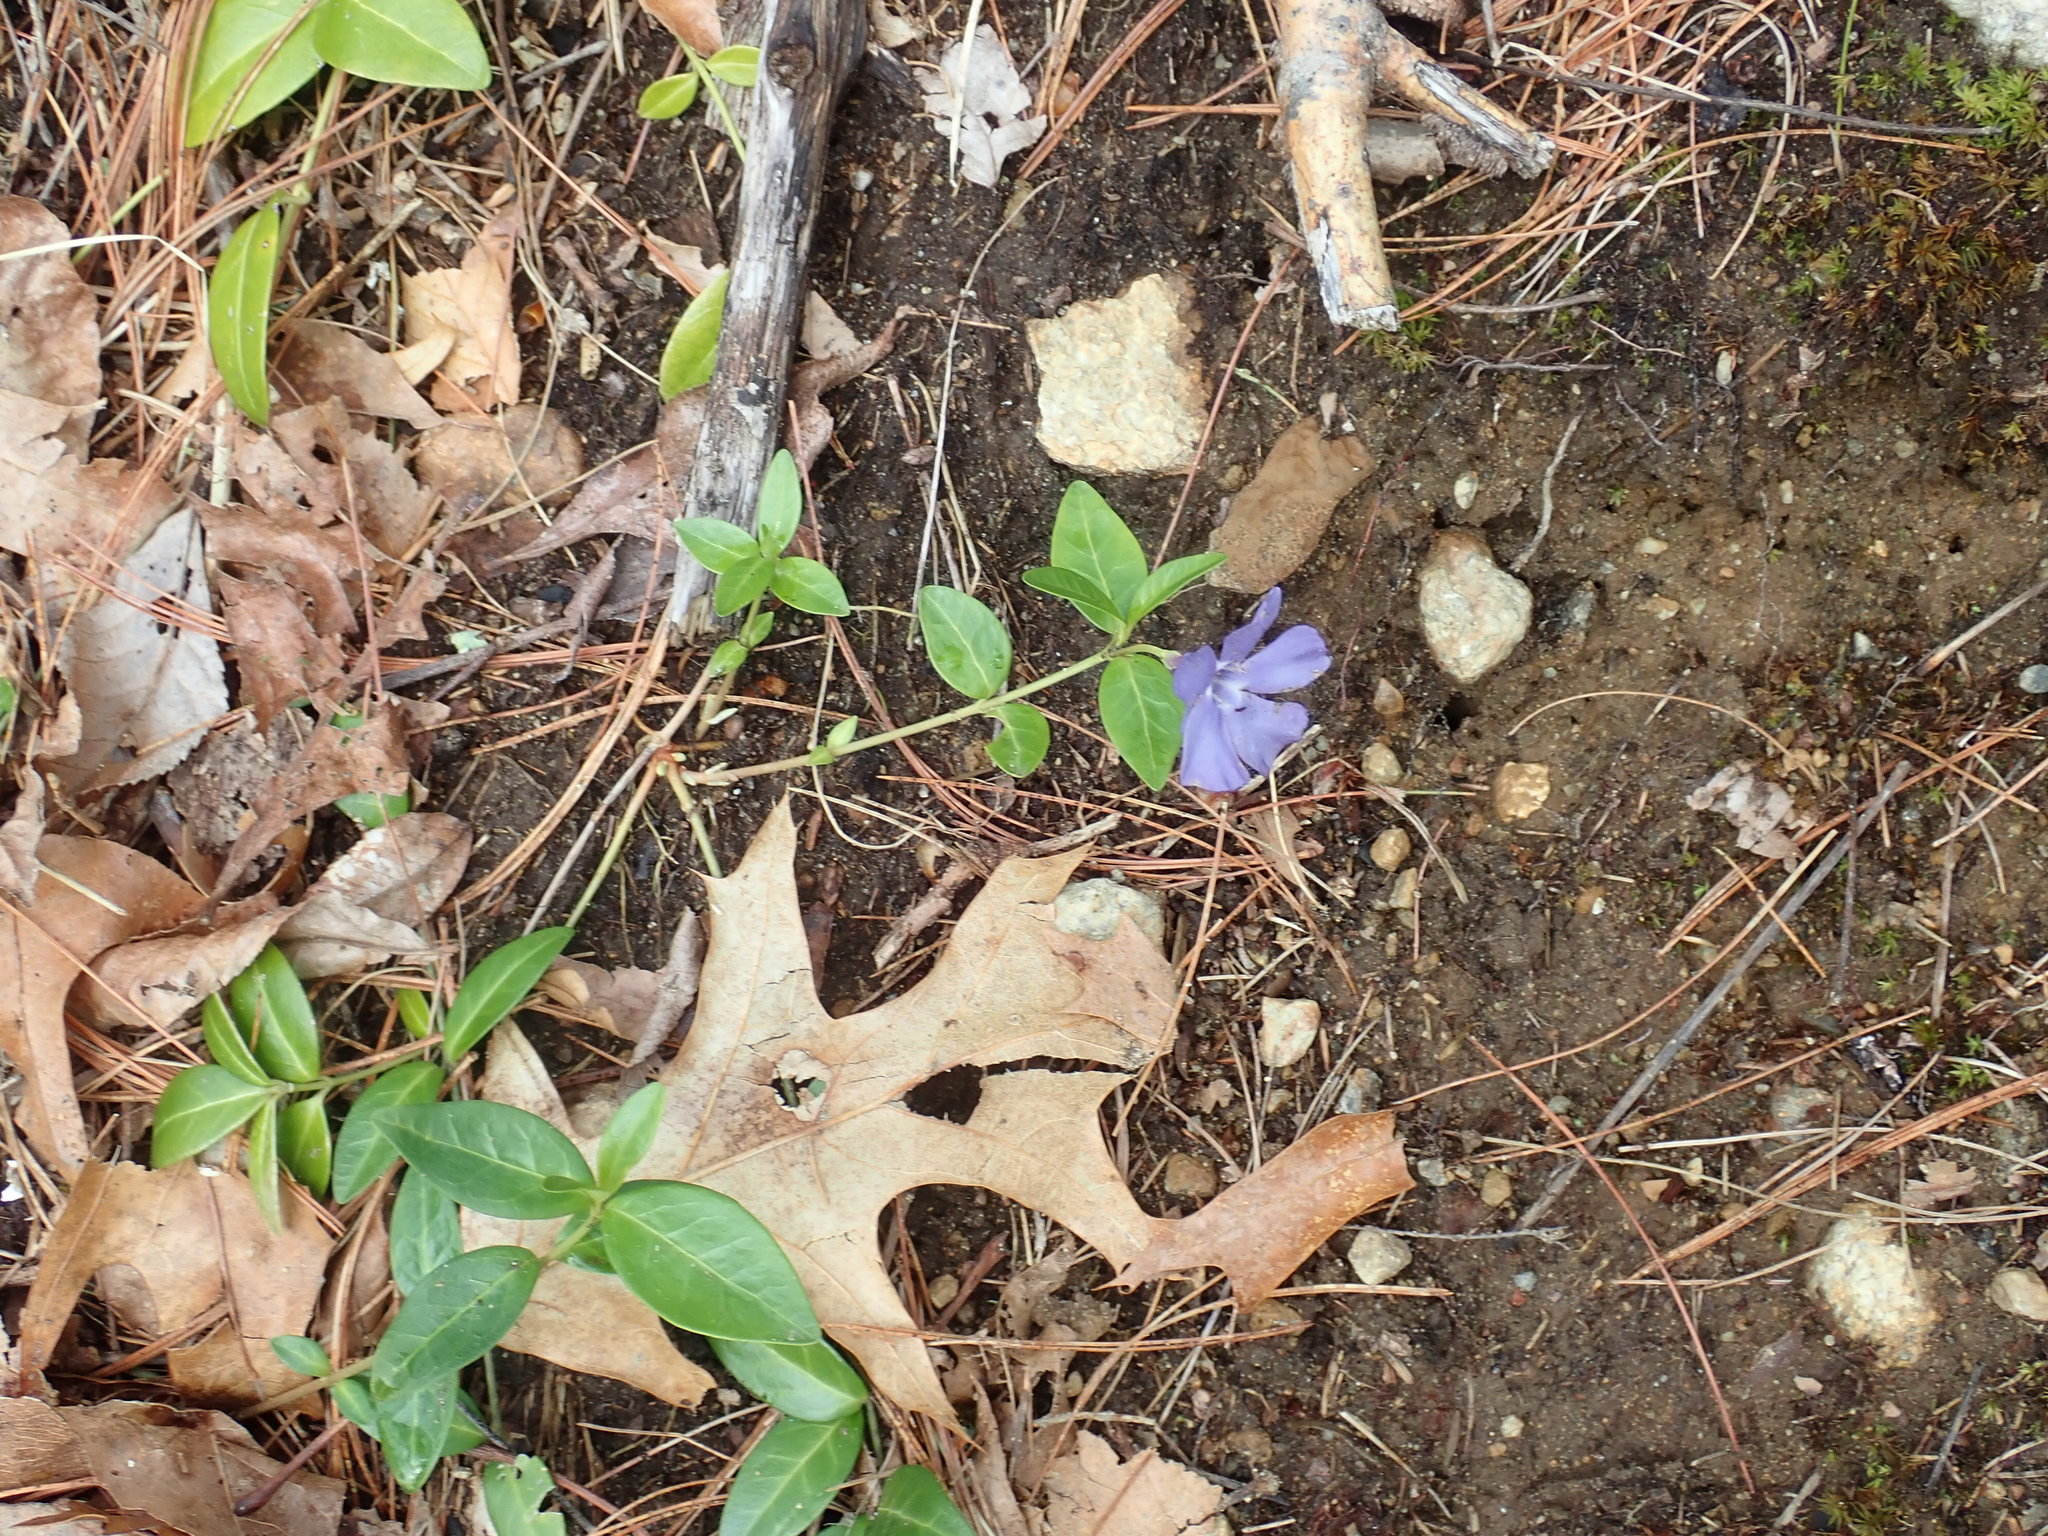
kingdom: Plantae
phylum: Tracheophyta
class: Magnoliopsida
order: Gentianales
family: Apocynaceae
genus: Vinca
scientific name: Vinca minor
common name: Lesser periwinkle
